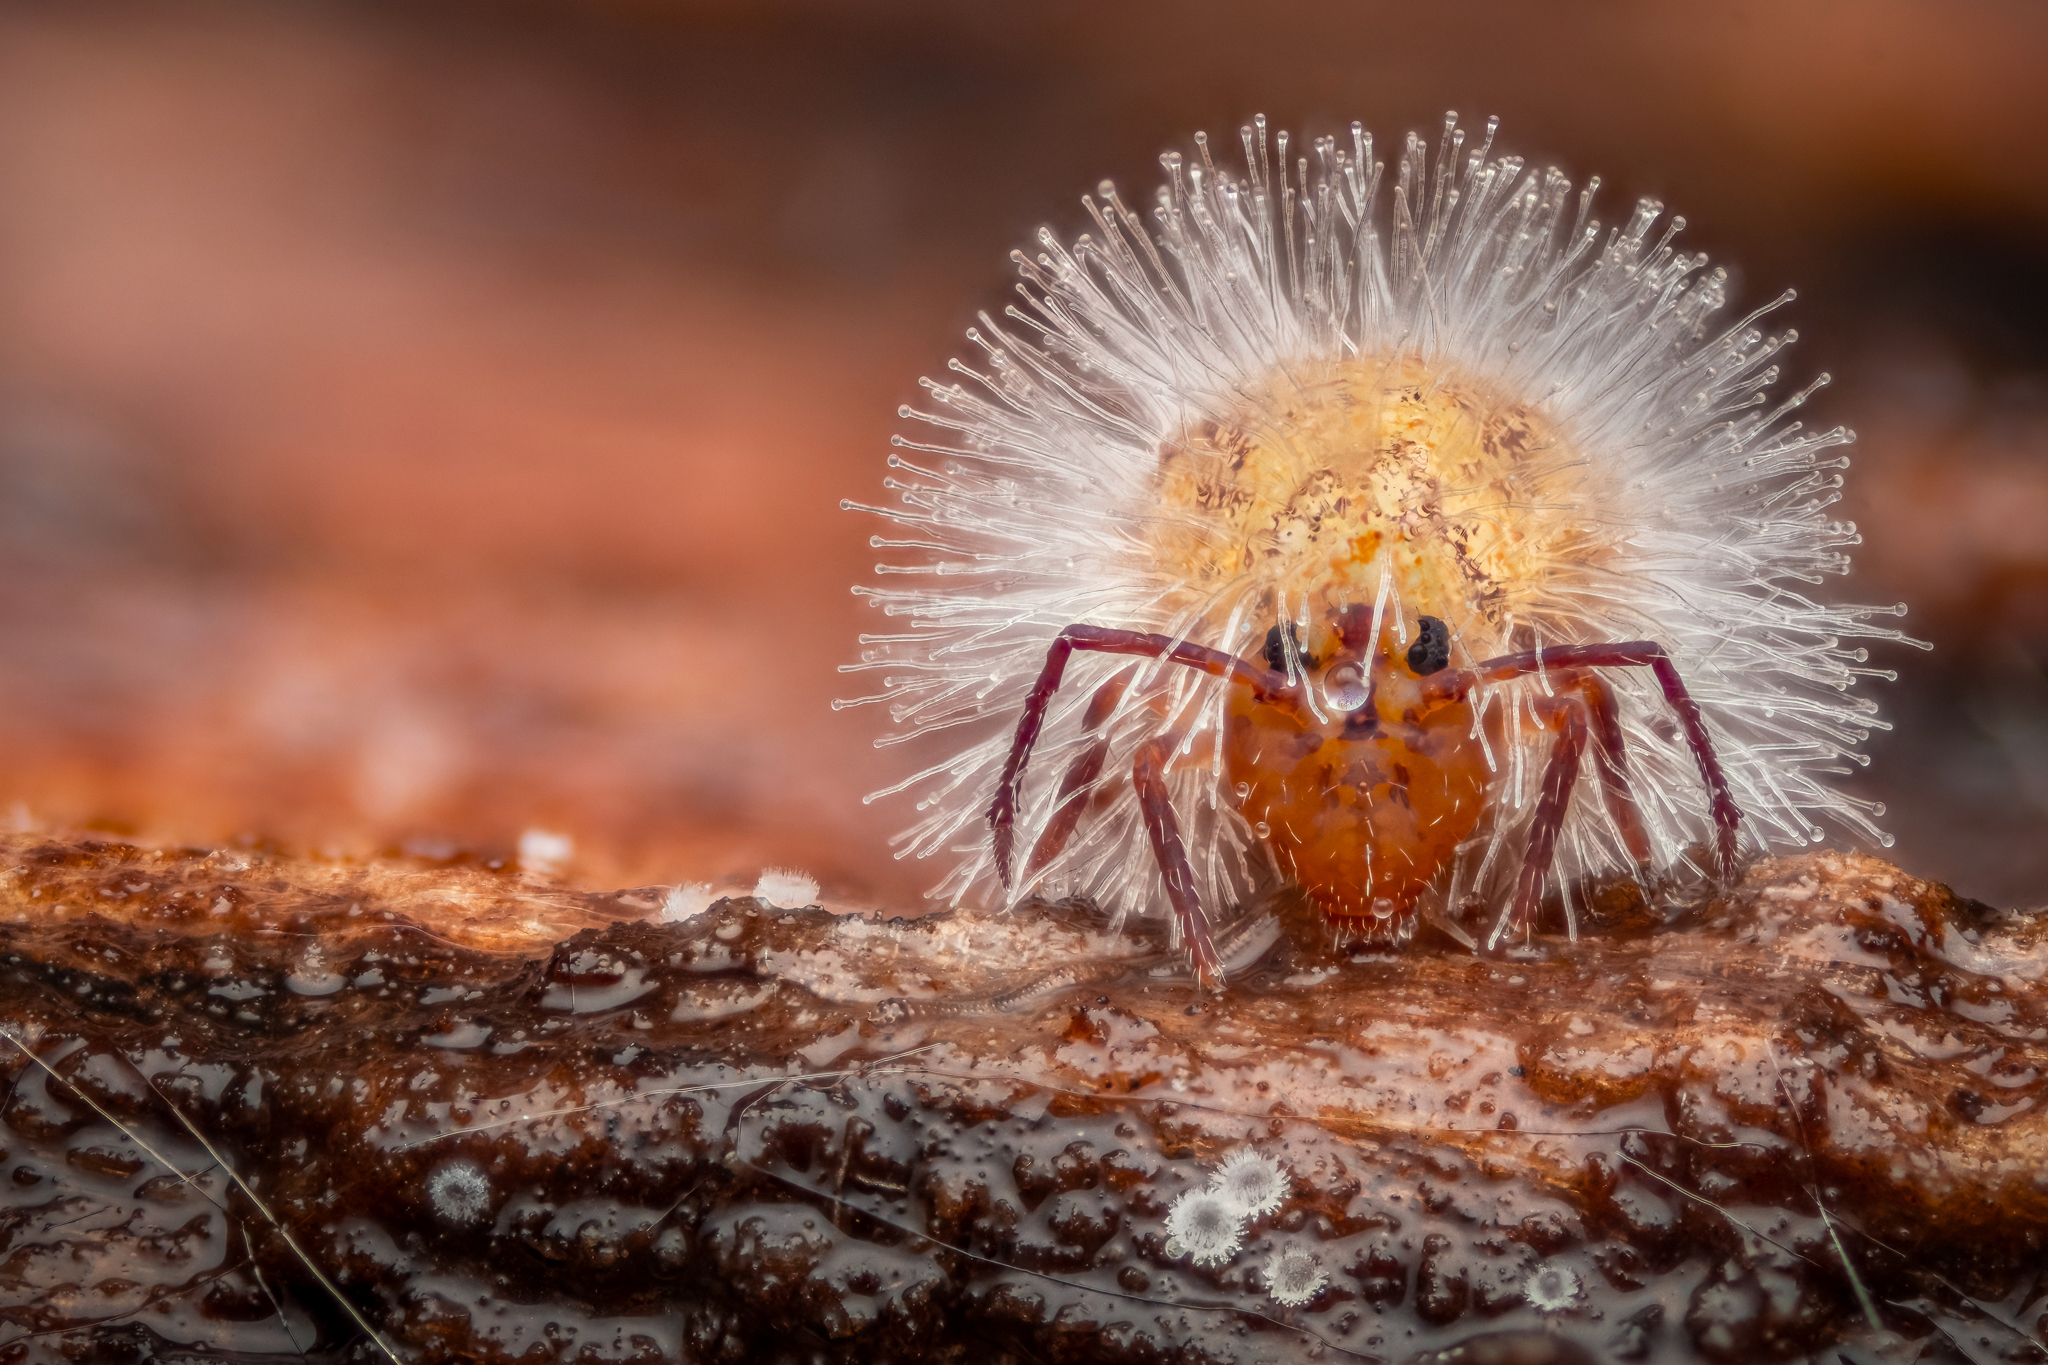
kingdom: Fungi
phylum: Entomophthoromycota
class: Entomophthoromycetes
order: Entomophthorales
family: Entomophthoraceae
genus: Pandora
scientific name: Pandora batallata
